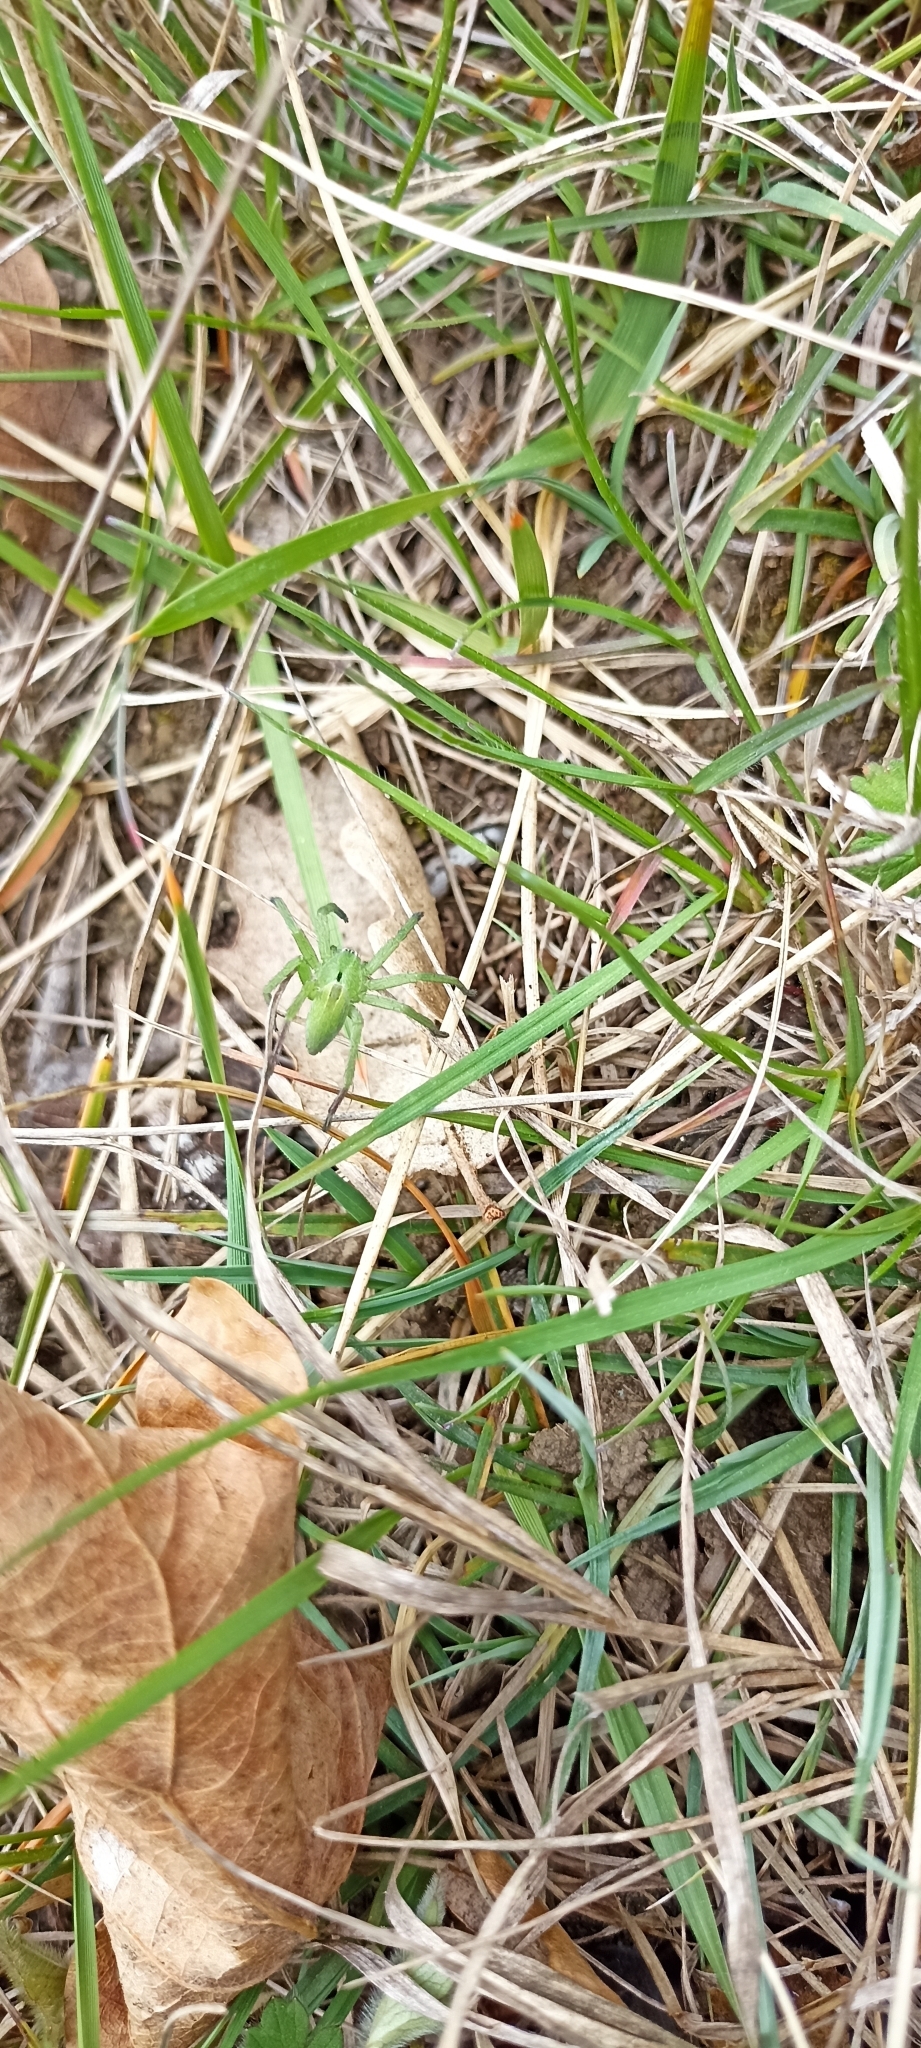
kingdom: Animalia
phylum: Arthropoda
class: Arachnida
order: Araneae
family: Sparassidae
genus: Micrommata
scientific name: Micrommata ligurina
